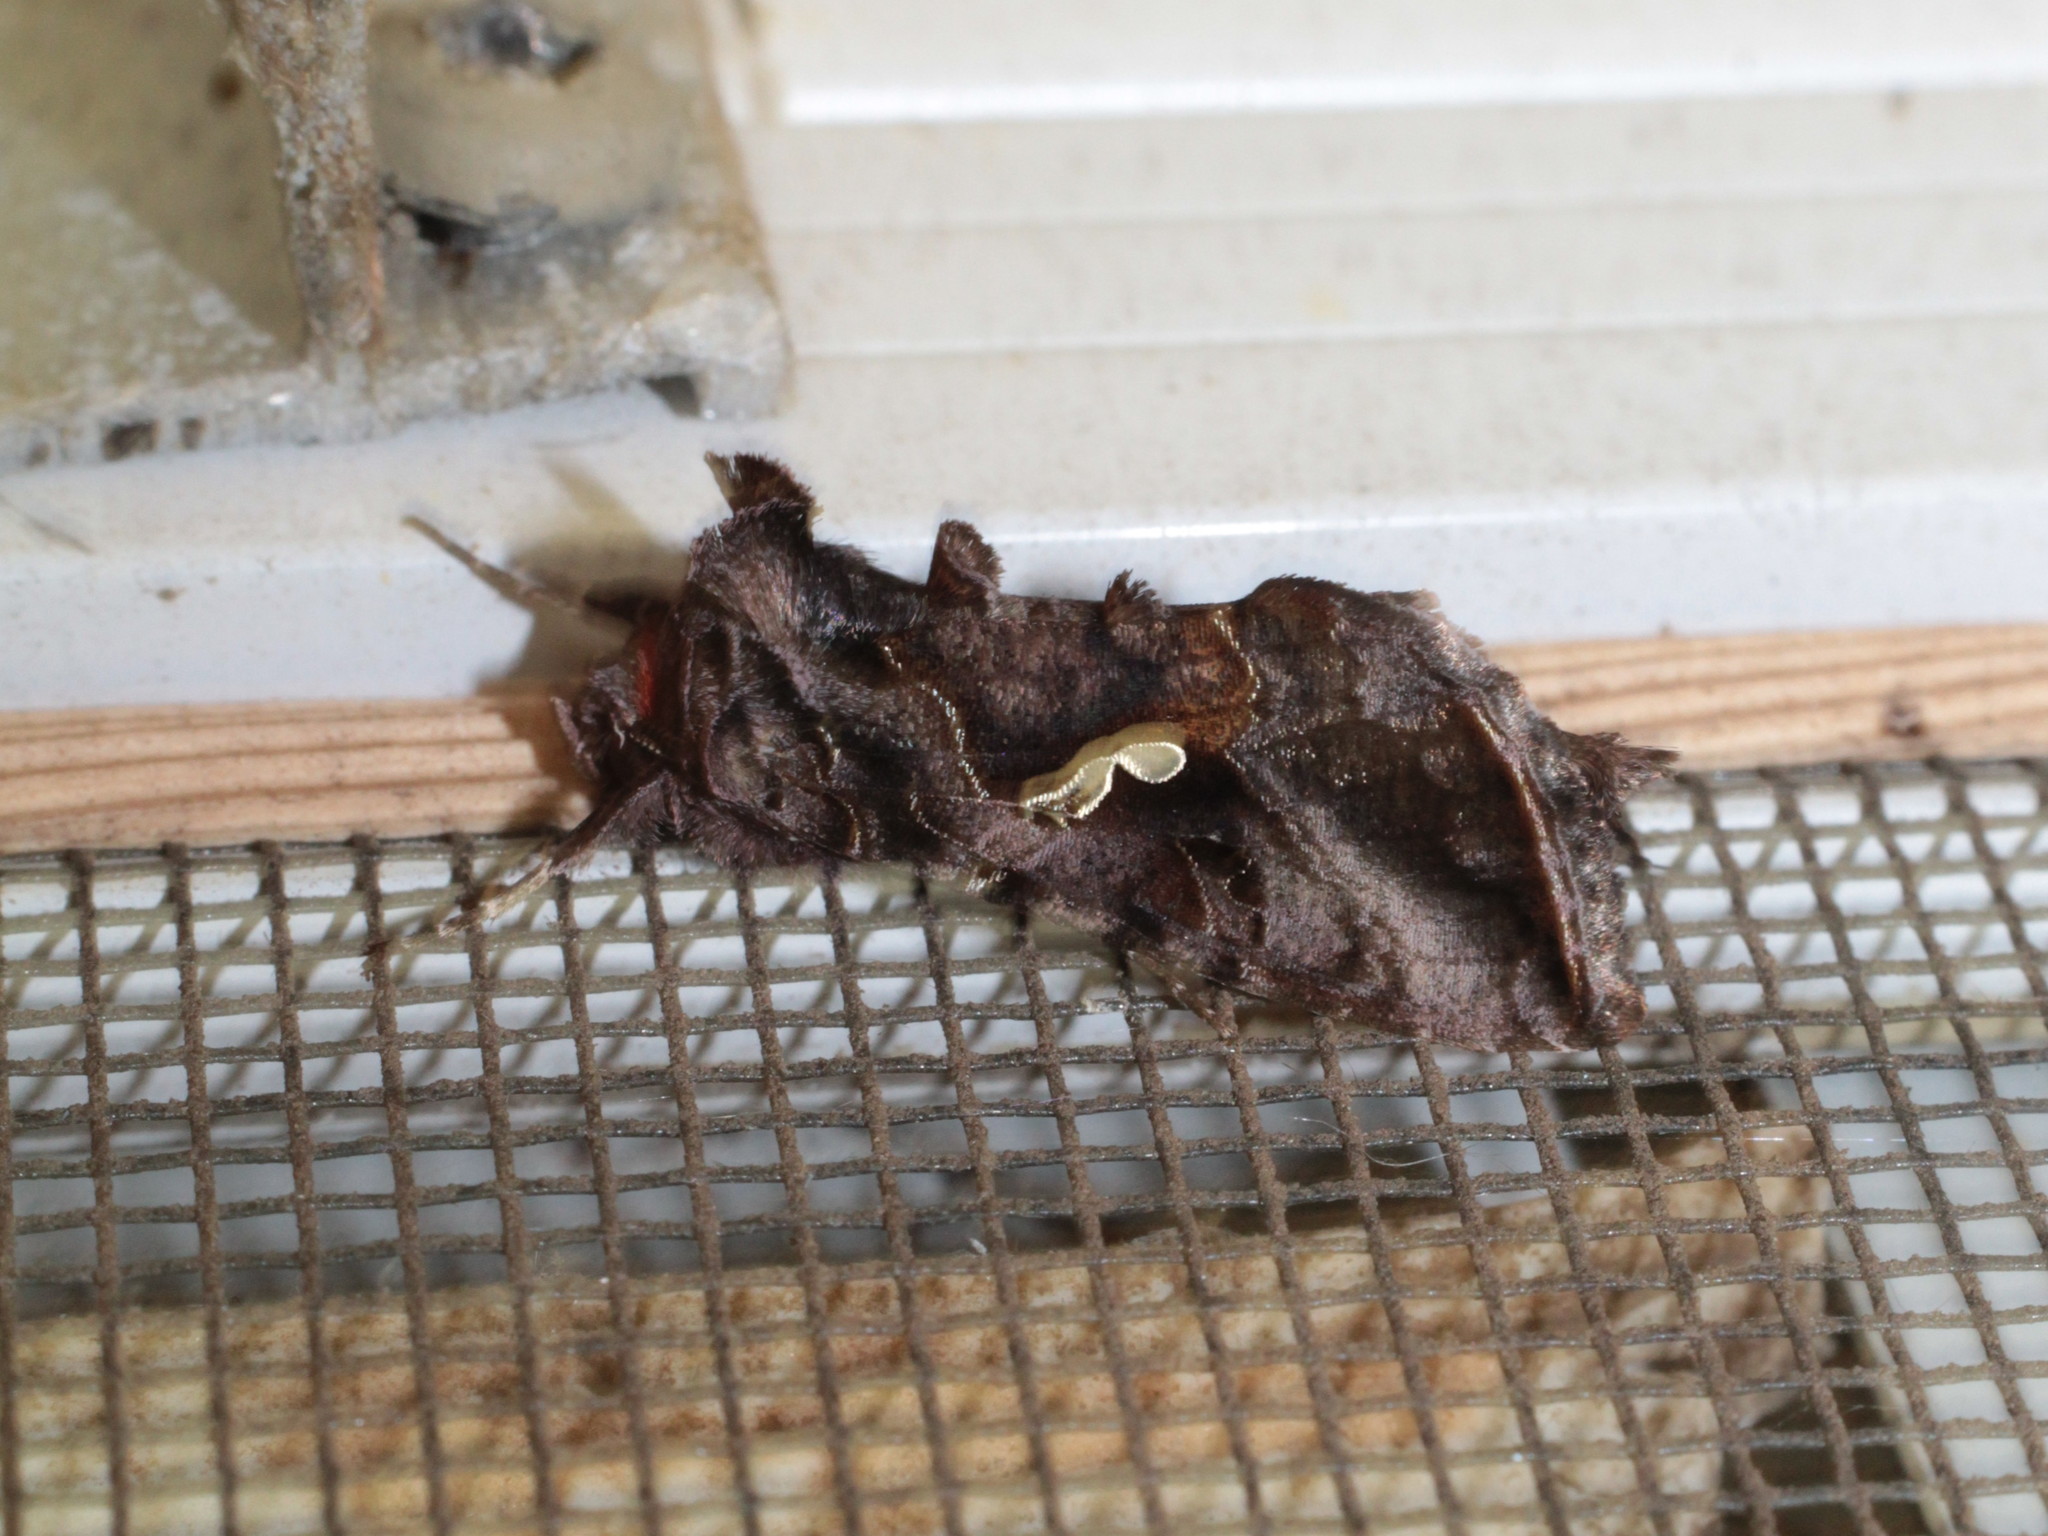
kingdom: Animalia
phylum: Arthropoda
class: Insecta
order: Lepidoptera
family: Noctuidae
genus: Autographa
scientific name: Autographa precationis
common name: Common looper moth
